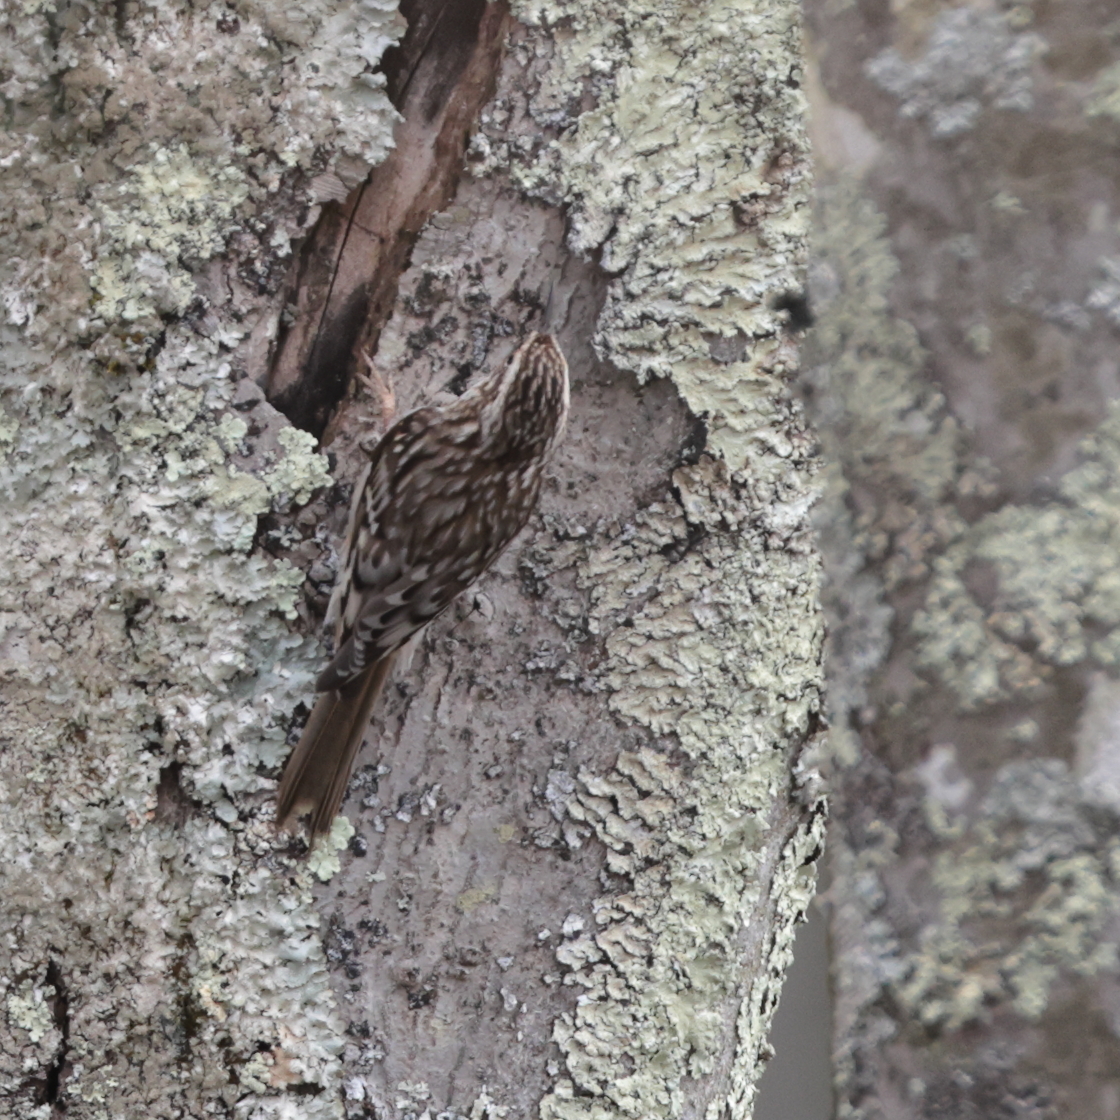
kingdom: Animalia
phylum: Chordata
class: Aves
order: Passeriformes
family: Certhiidae
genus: Certhia
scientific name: Certhia americana
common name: Brown creeper
